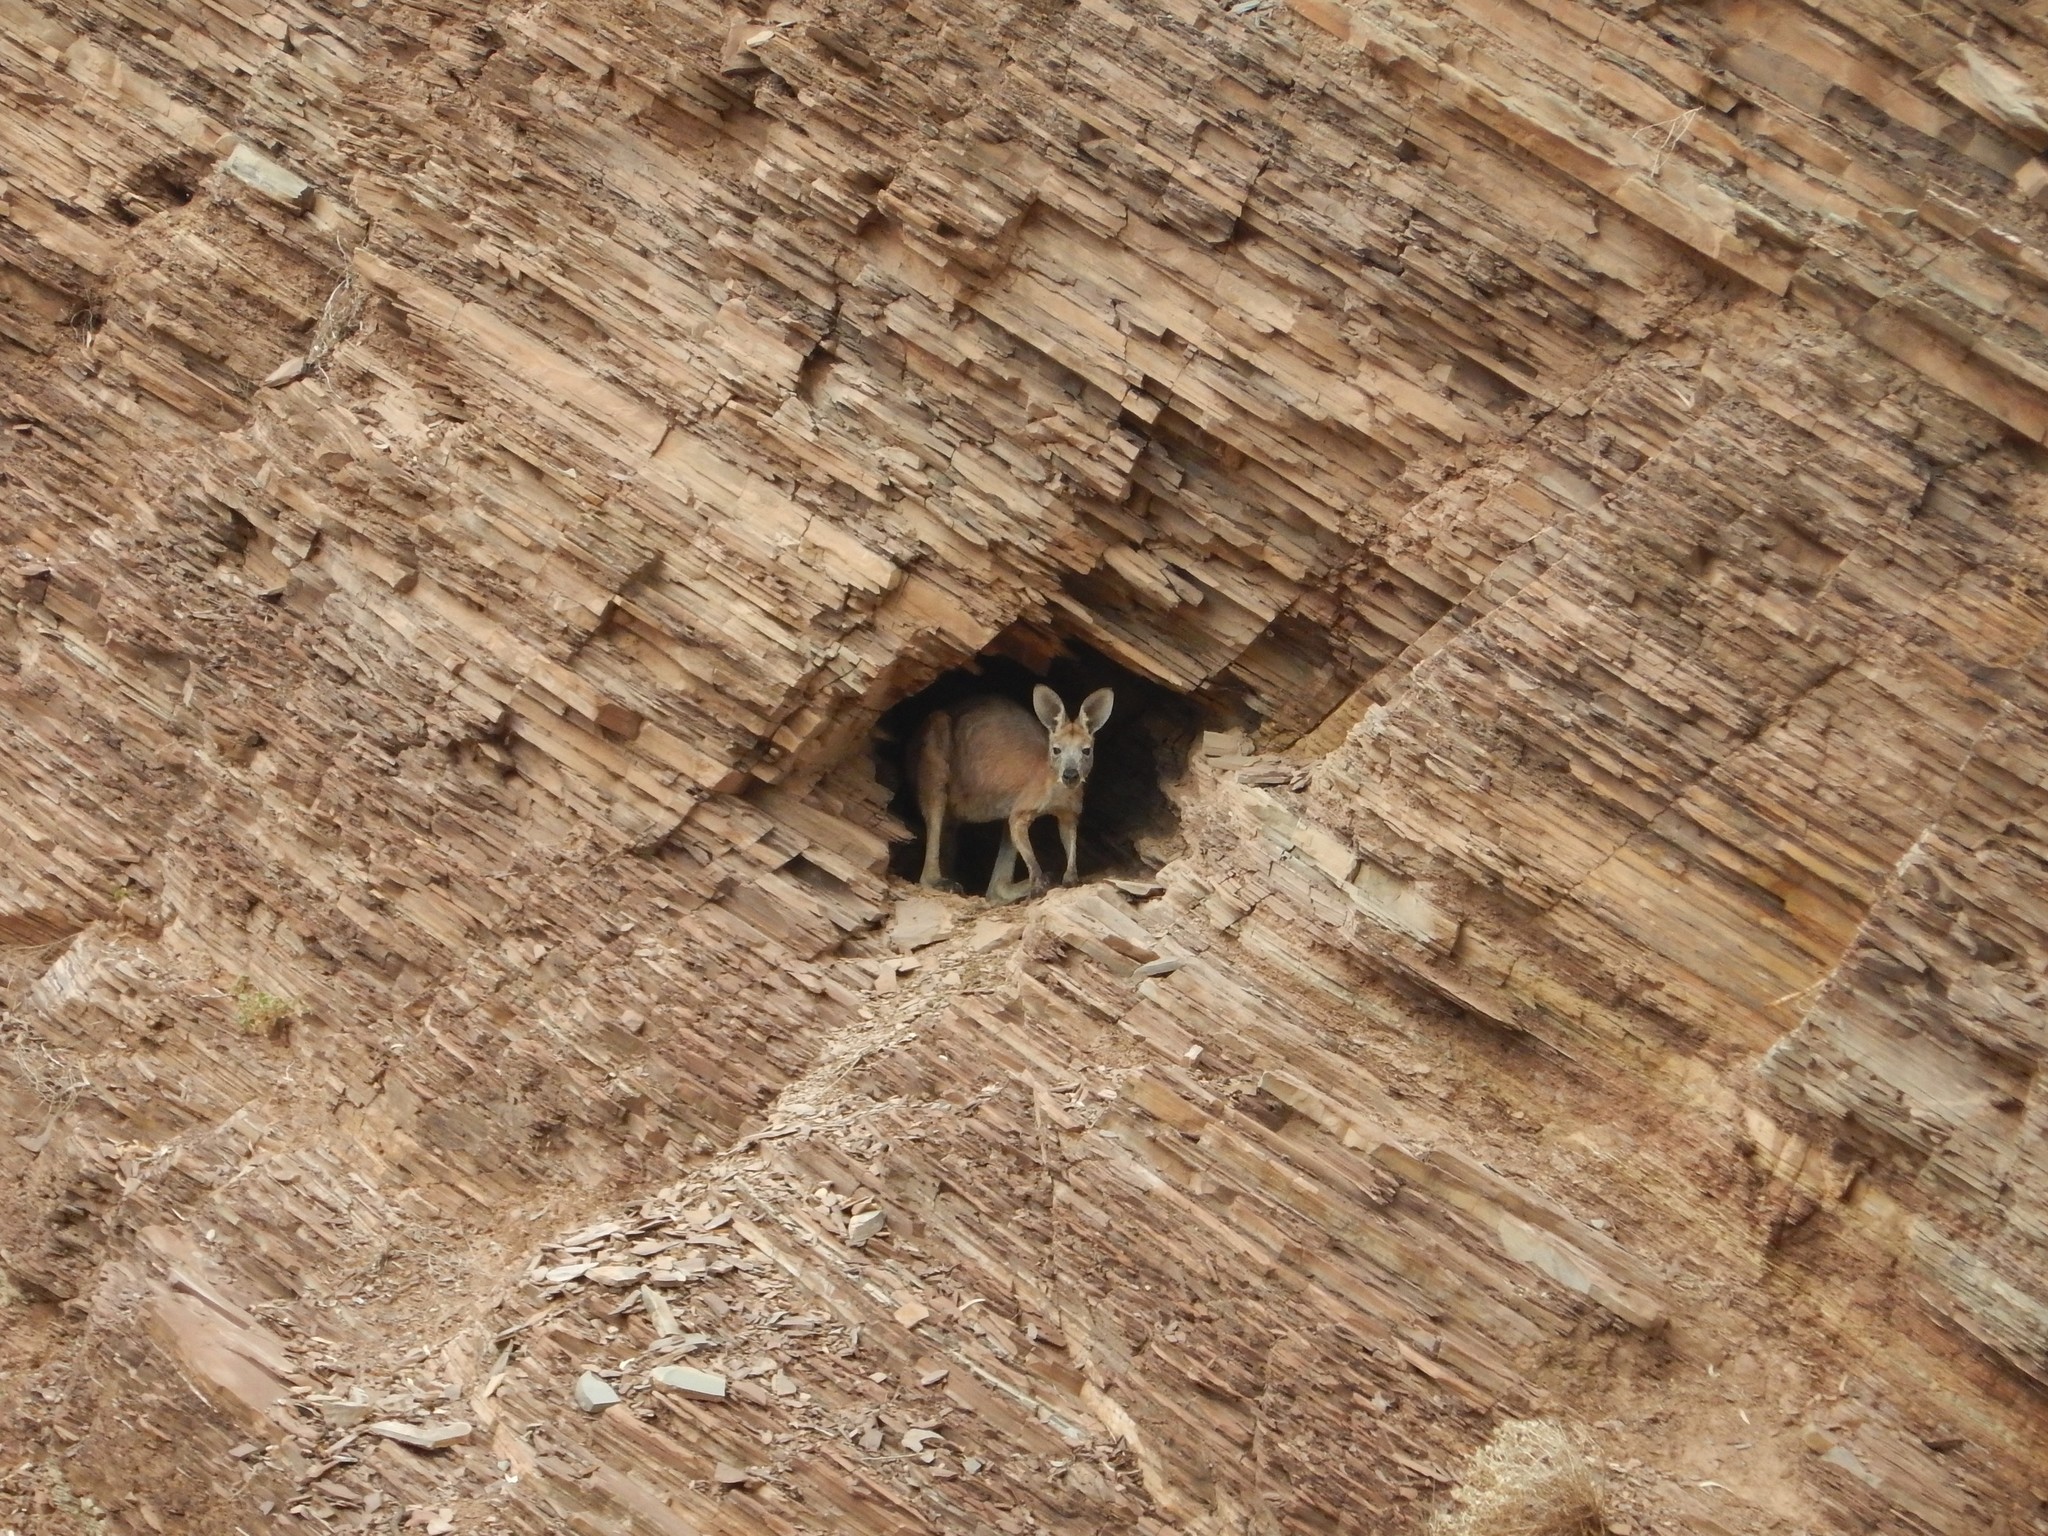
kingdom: Animalia
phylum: Chordata
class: Mammalia
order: Diprotodontia
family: Macropodidae
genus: Macropus
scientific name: Macropus robustus
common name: Eastern wallaroo
